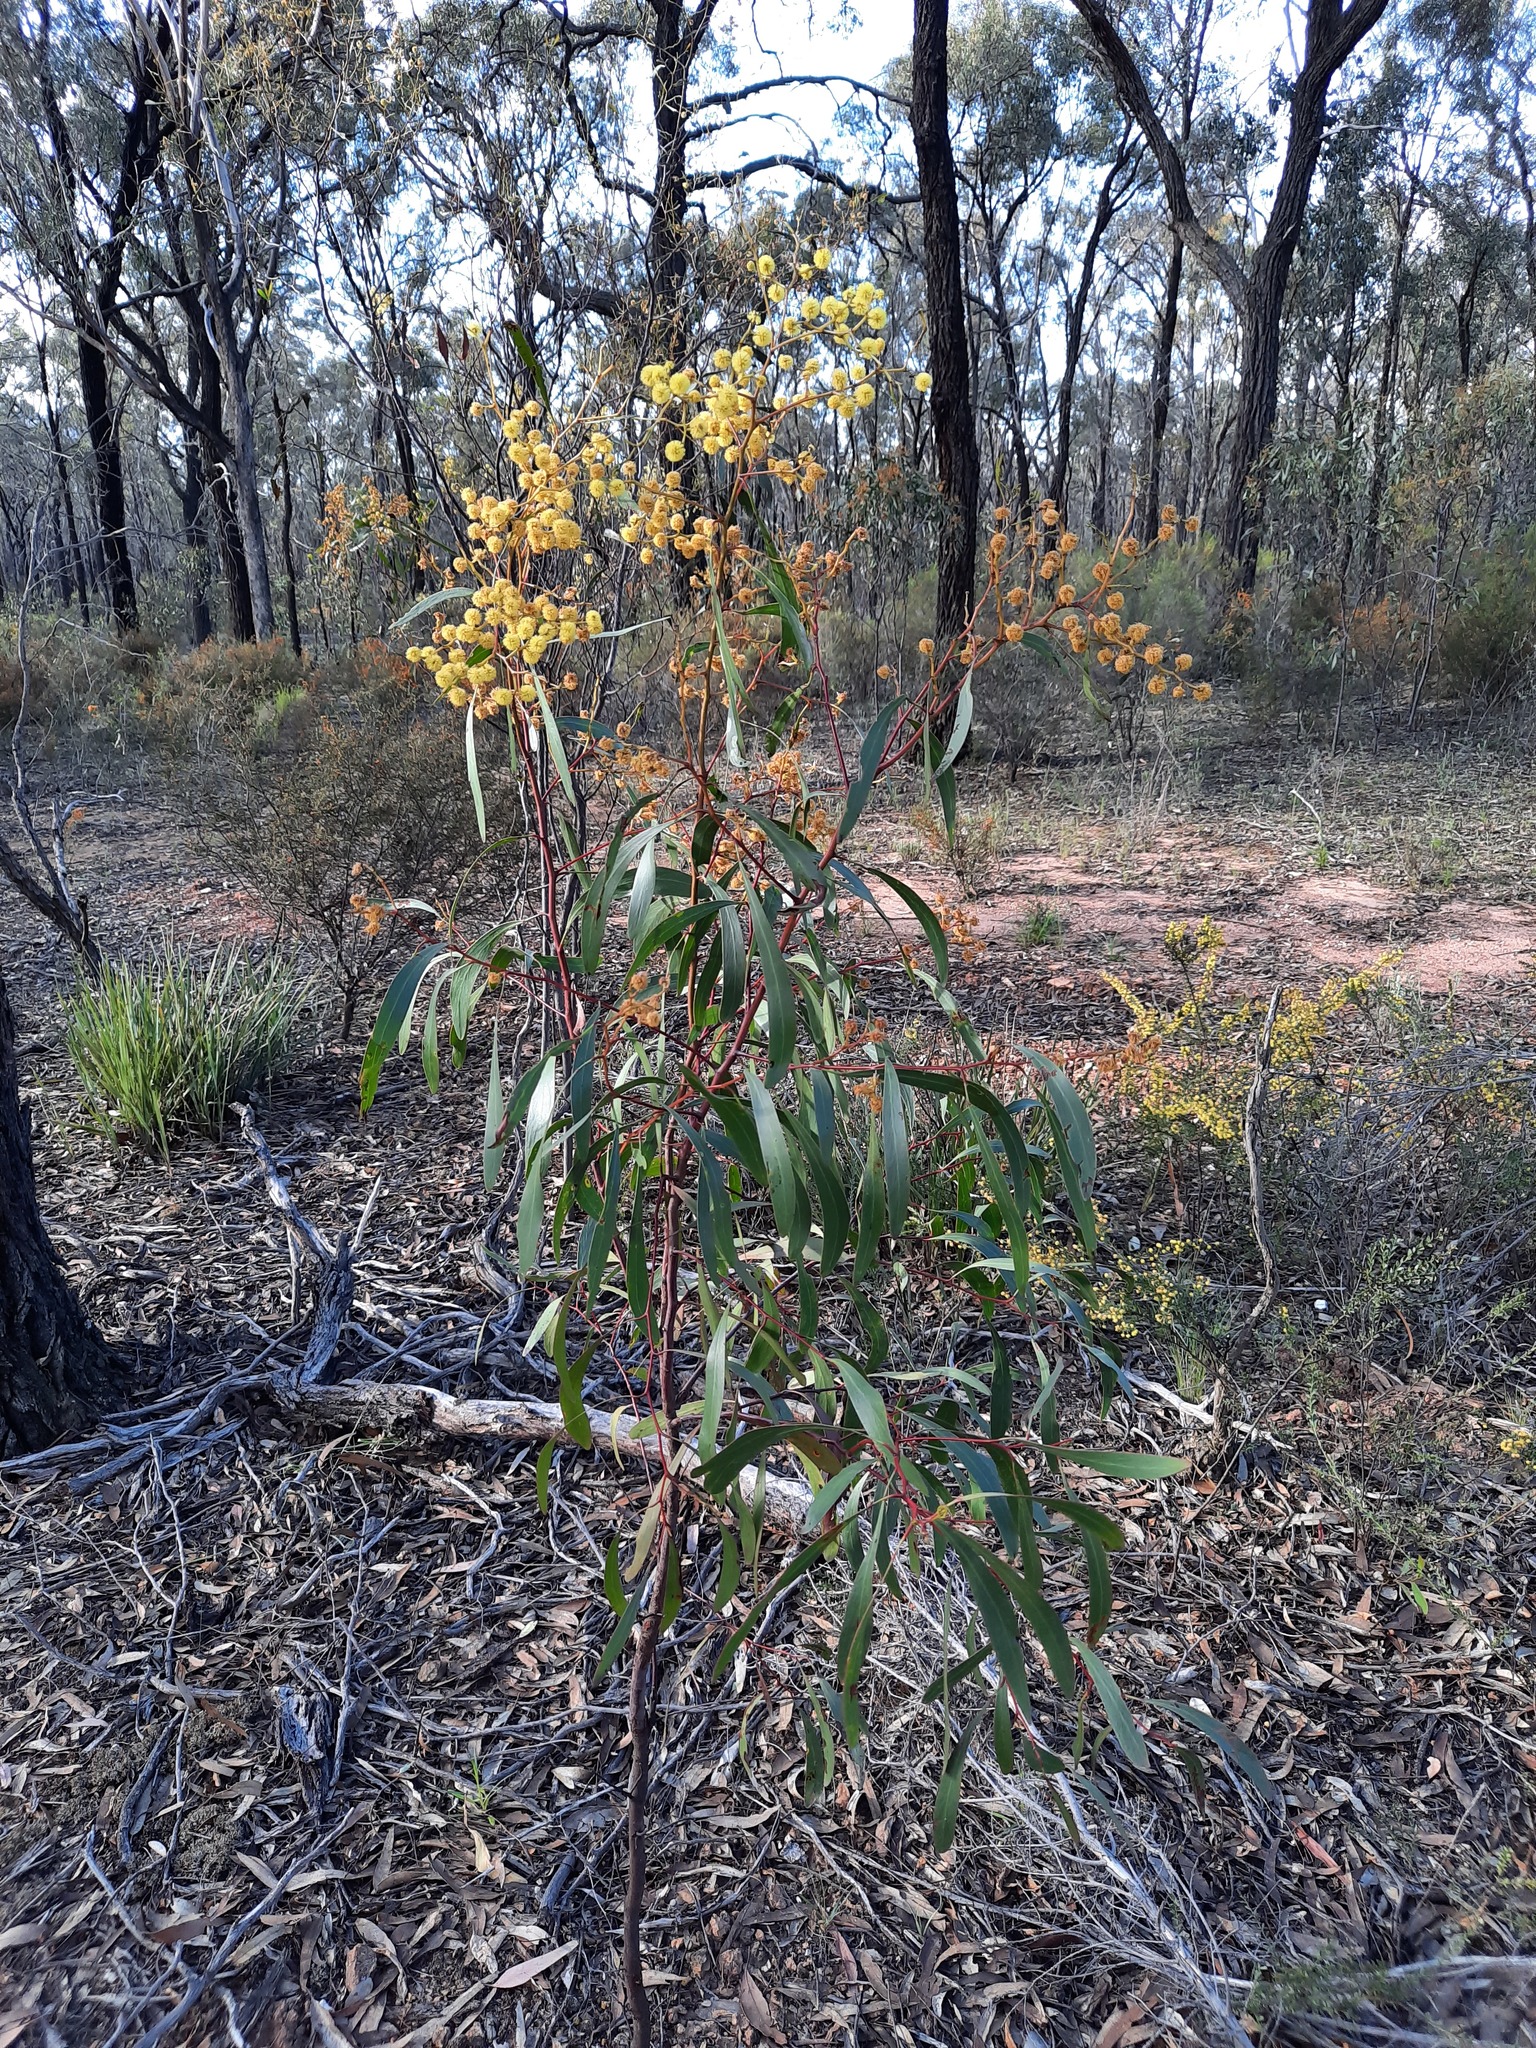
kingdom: Plantae
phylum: Tracheophyta
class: Magnoliopsida
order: Fabales
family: Fabaceae
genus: Acacia
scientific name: Acacia pycnantha
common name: Golden wattle
